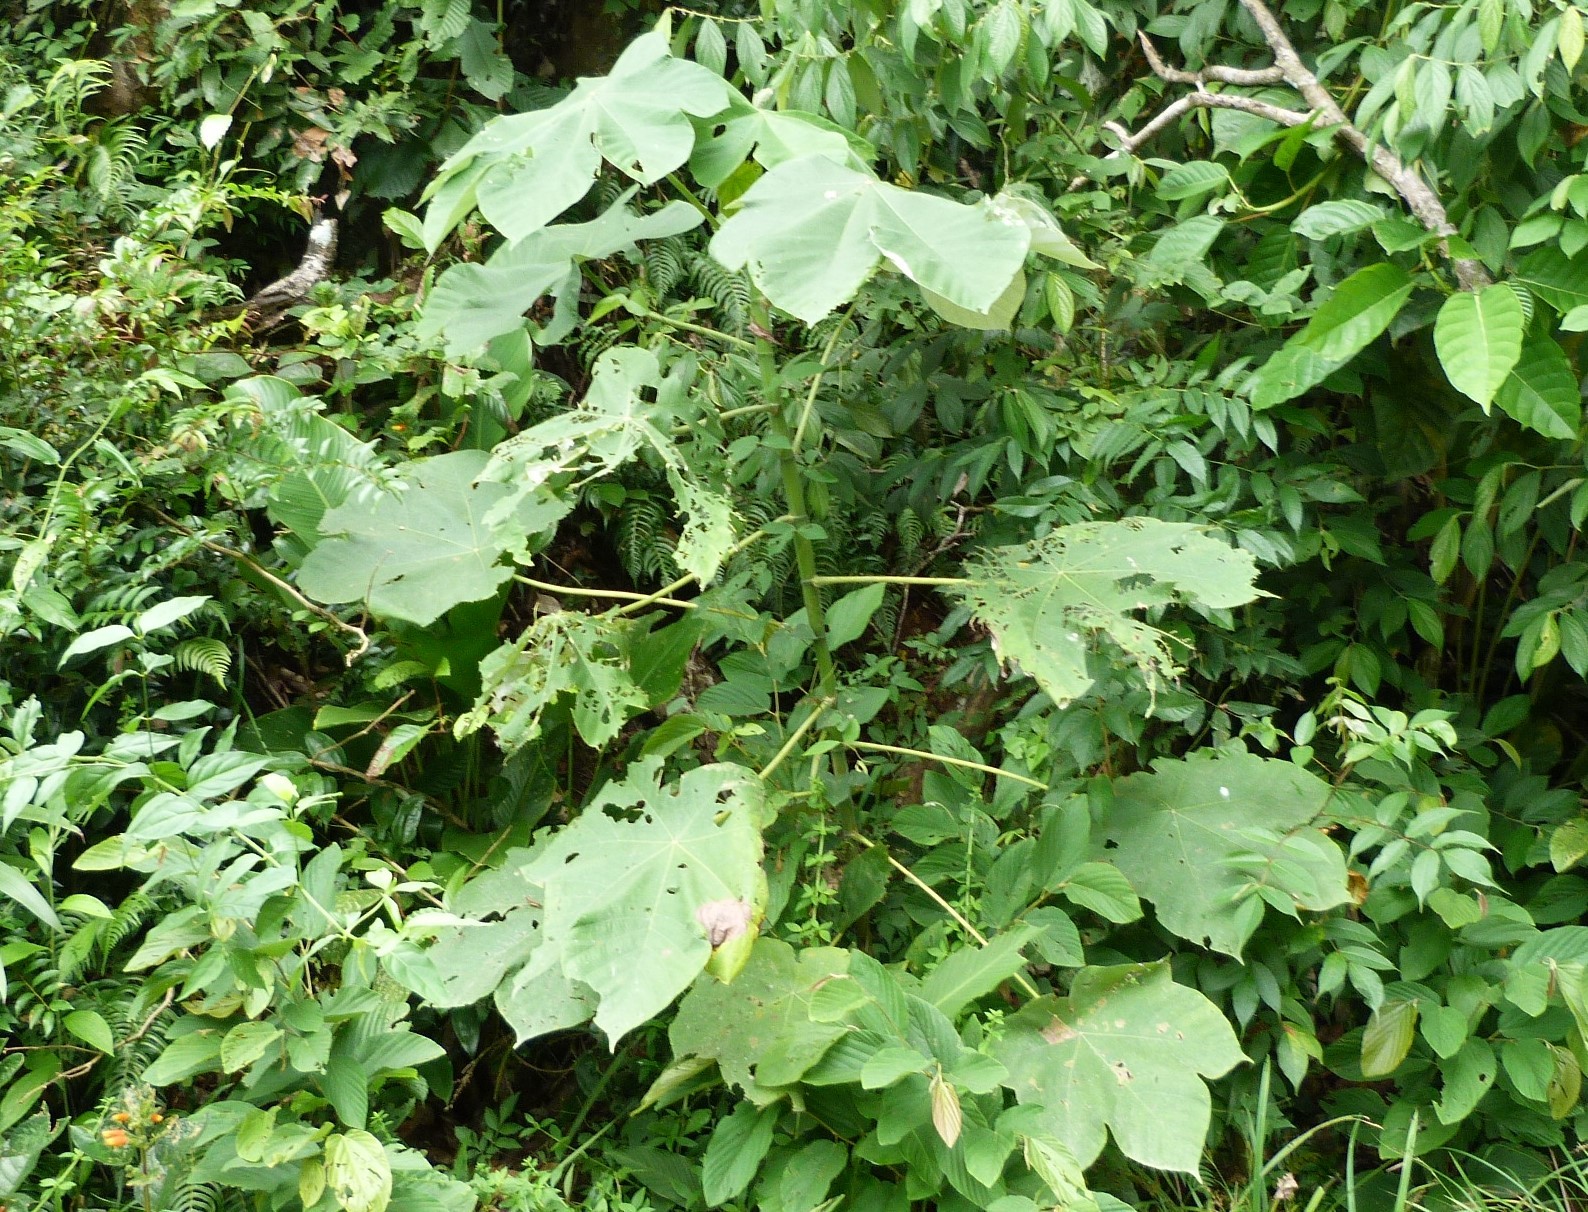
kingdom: Plantae
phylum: Tracheophyta
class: Magnoliopsida
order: Rosales
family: Urticaceae
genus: Cecropia
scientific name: Cecropia peltata
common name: Trumpet-tree
